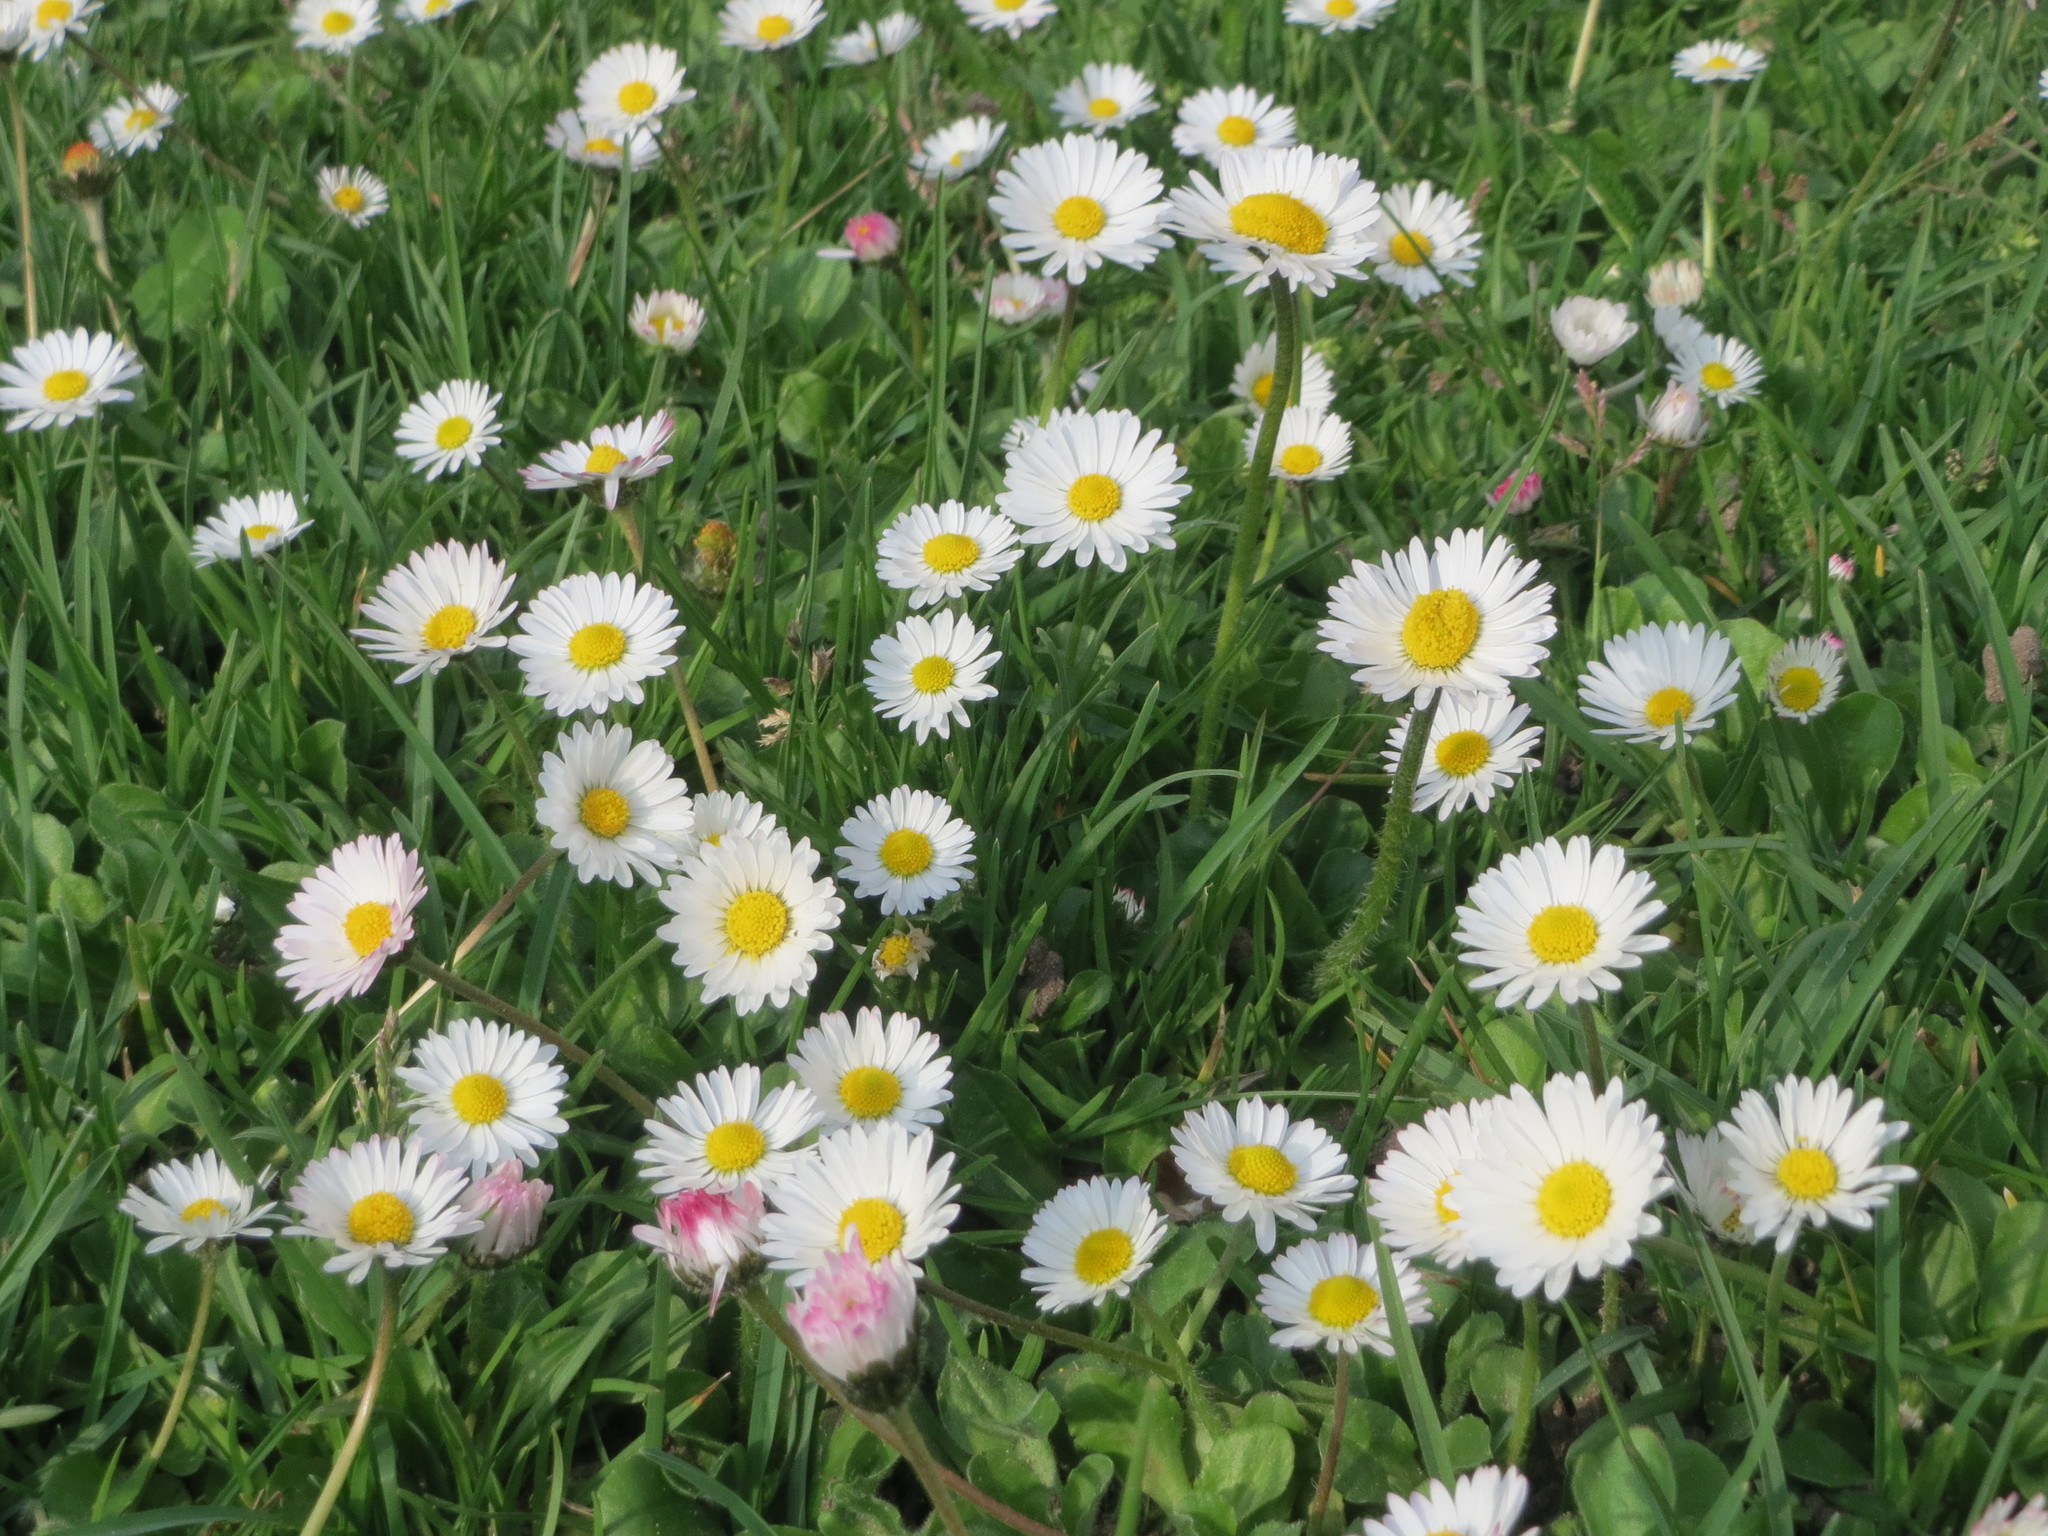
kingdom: Plantae
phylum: Tracheophyta
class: Magnoliopsida
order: Asterales
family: Asteraceae
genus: Bellis
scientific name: Bellis perennis
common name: Lawndaisy
